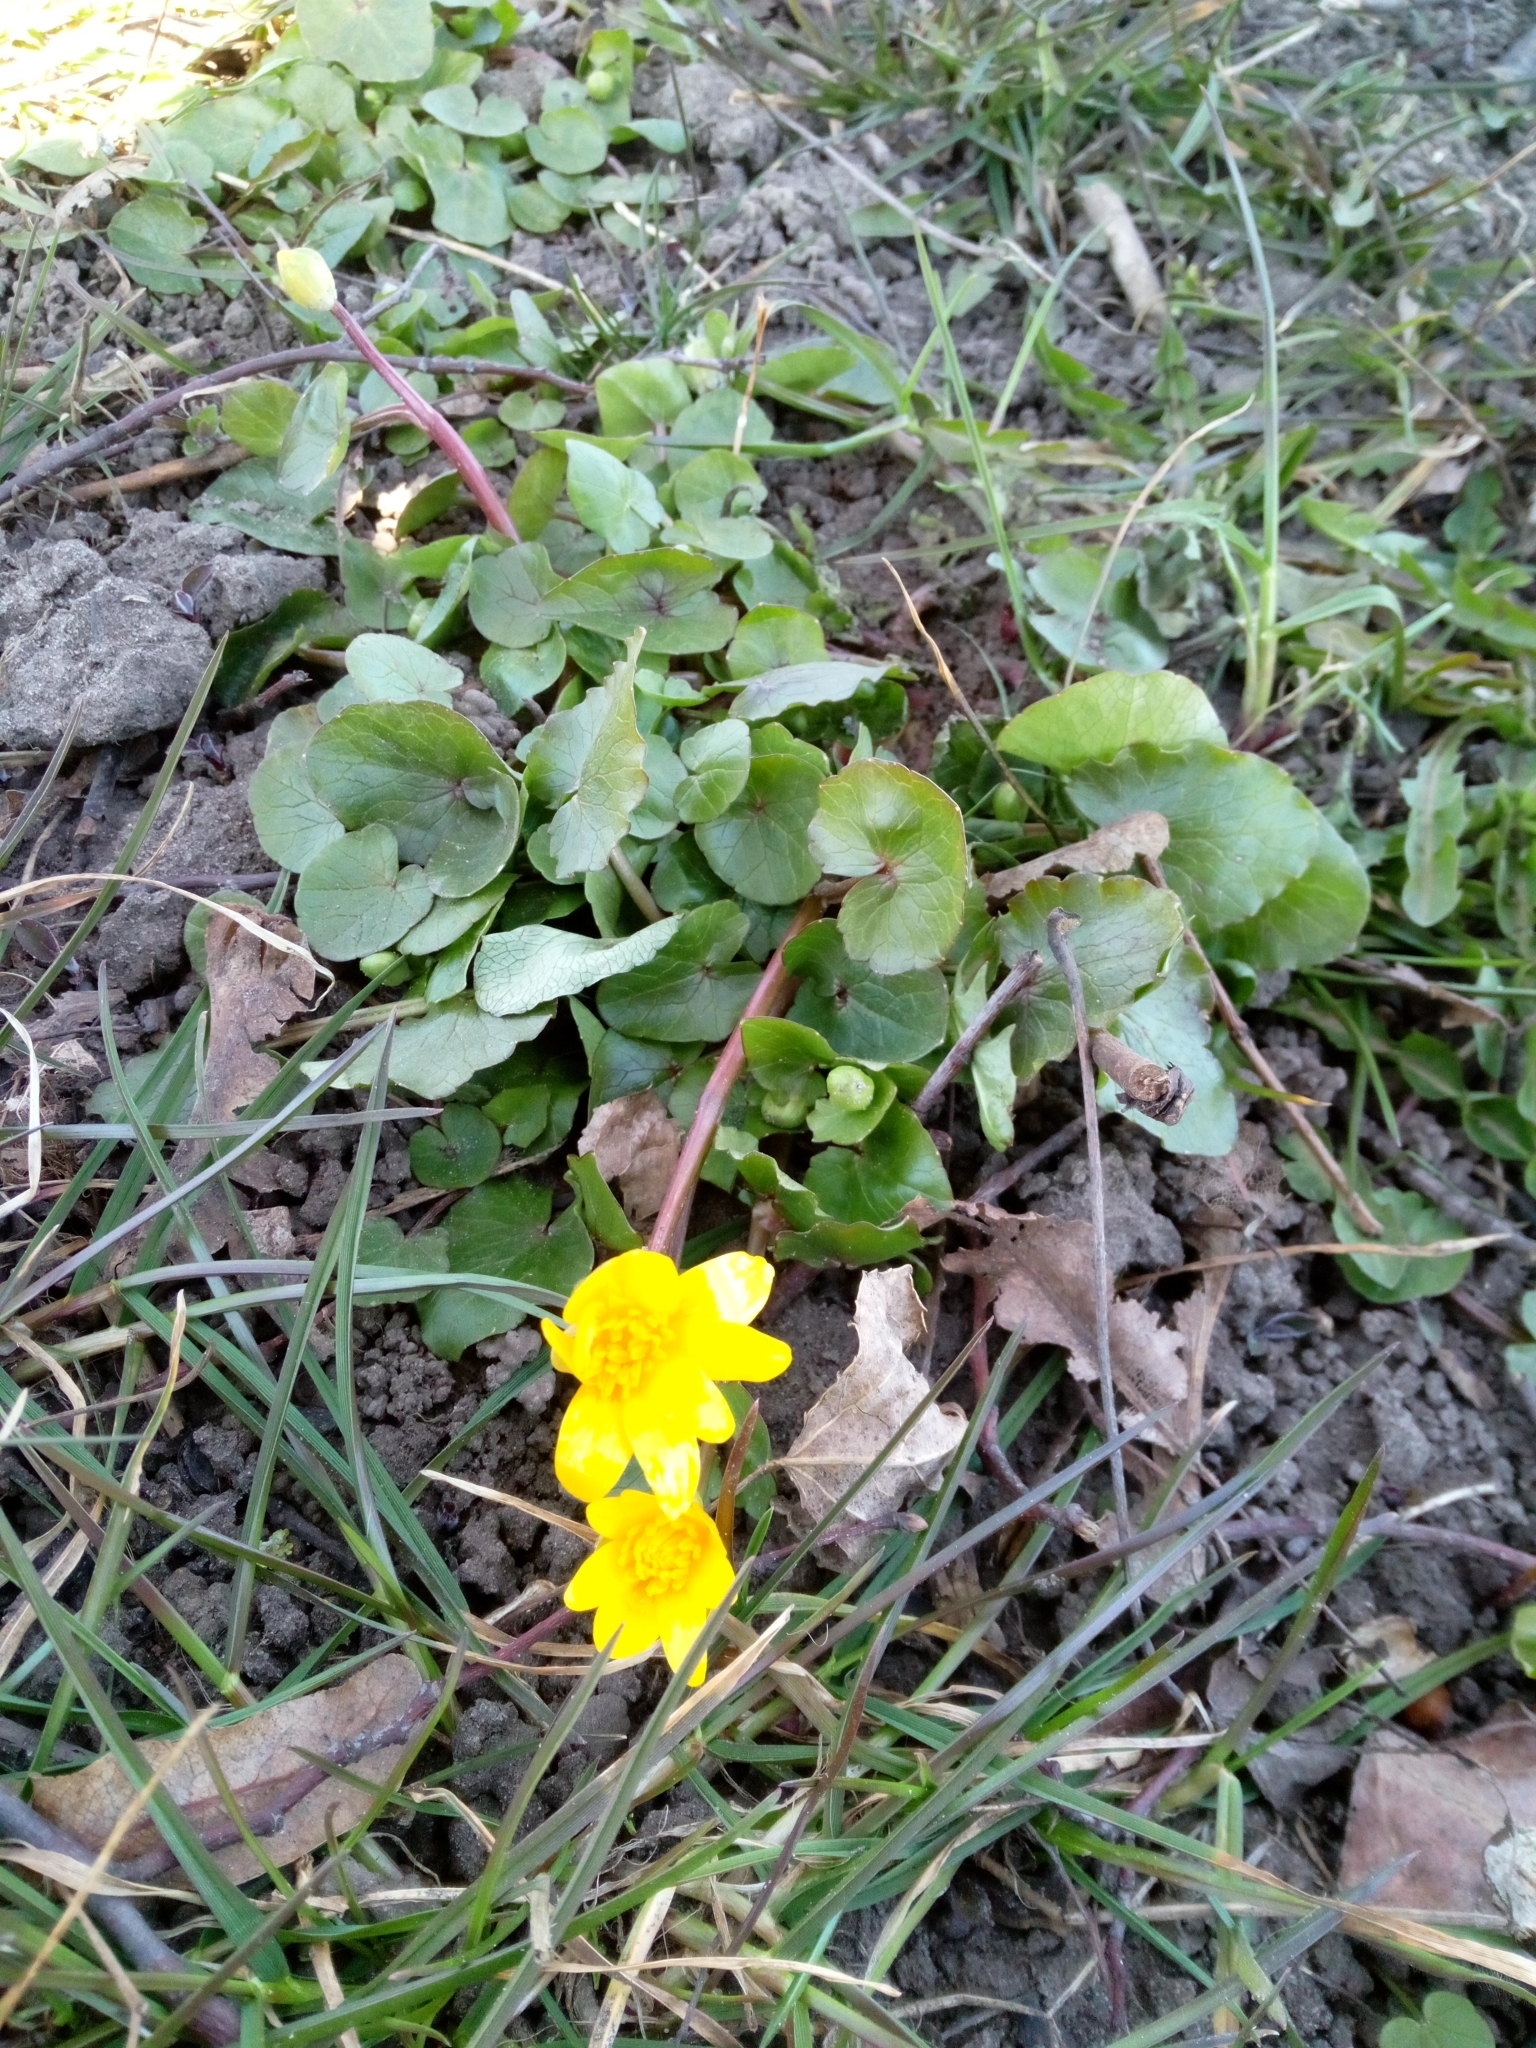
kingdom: Plantae
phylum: Tracheophyta
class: Magnoliopsida
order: Ranunculales
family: Ranunculaceae
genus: Ficaria
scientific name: Ficaria verna
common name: Lesser celandine
